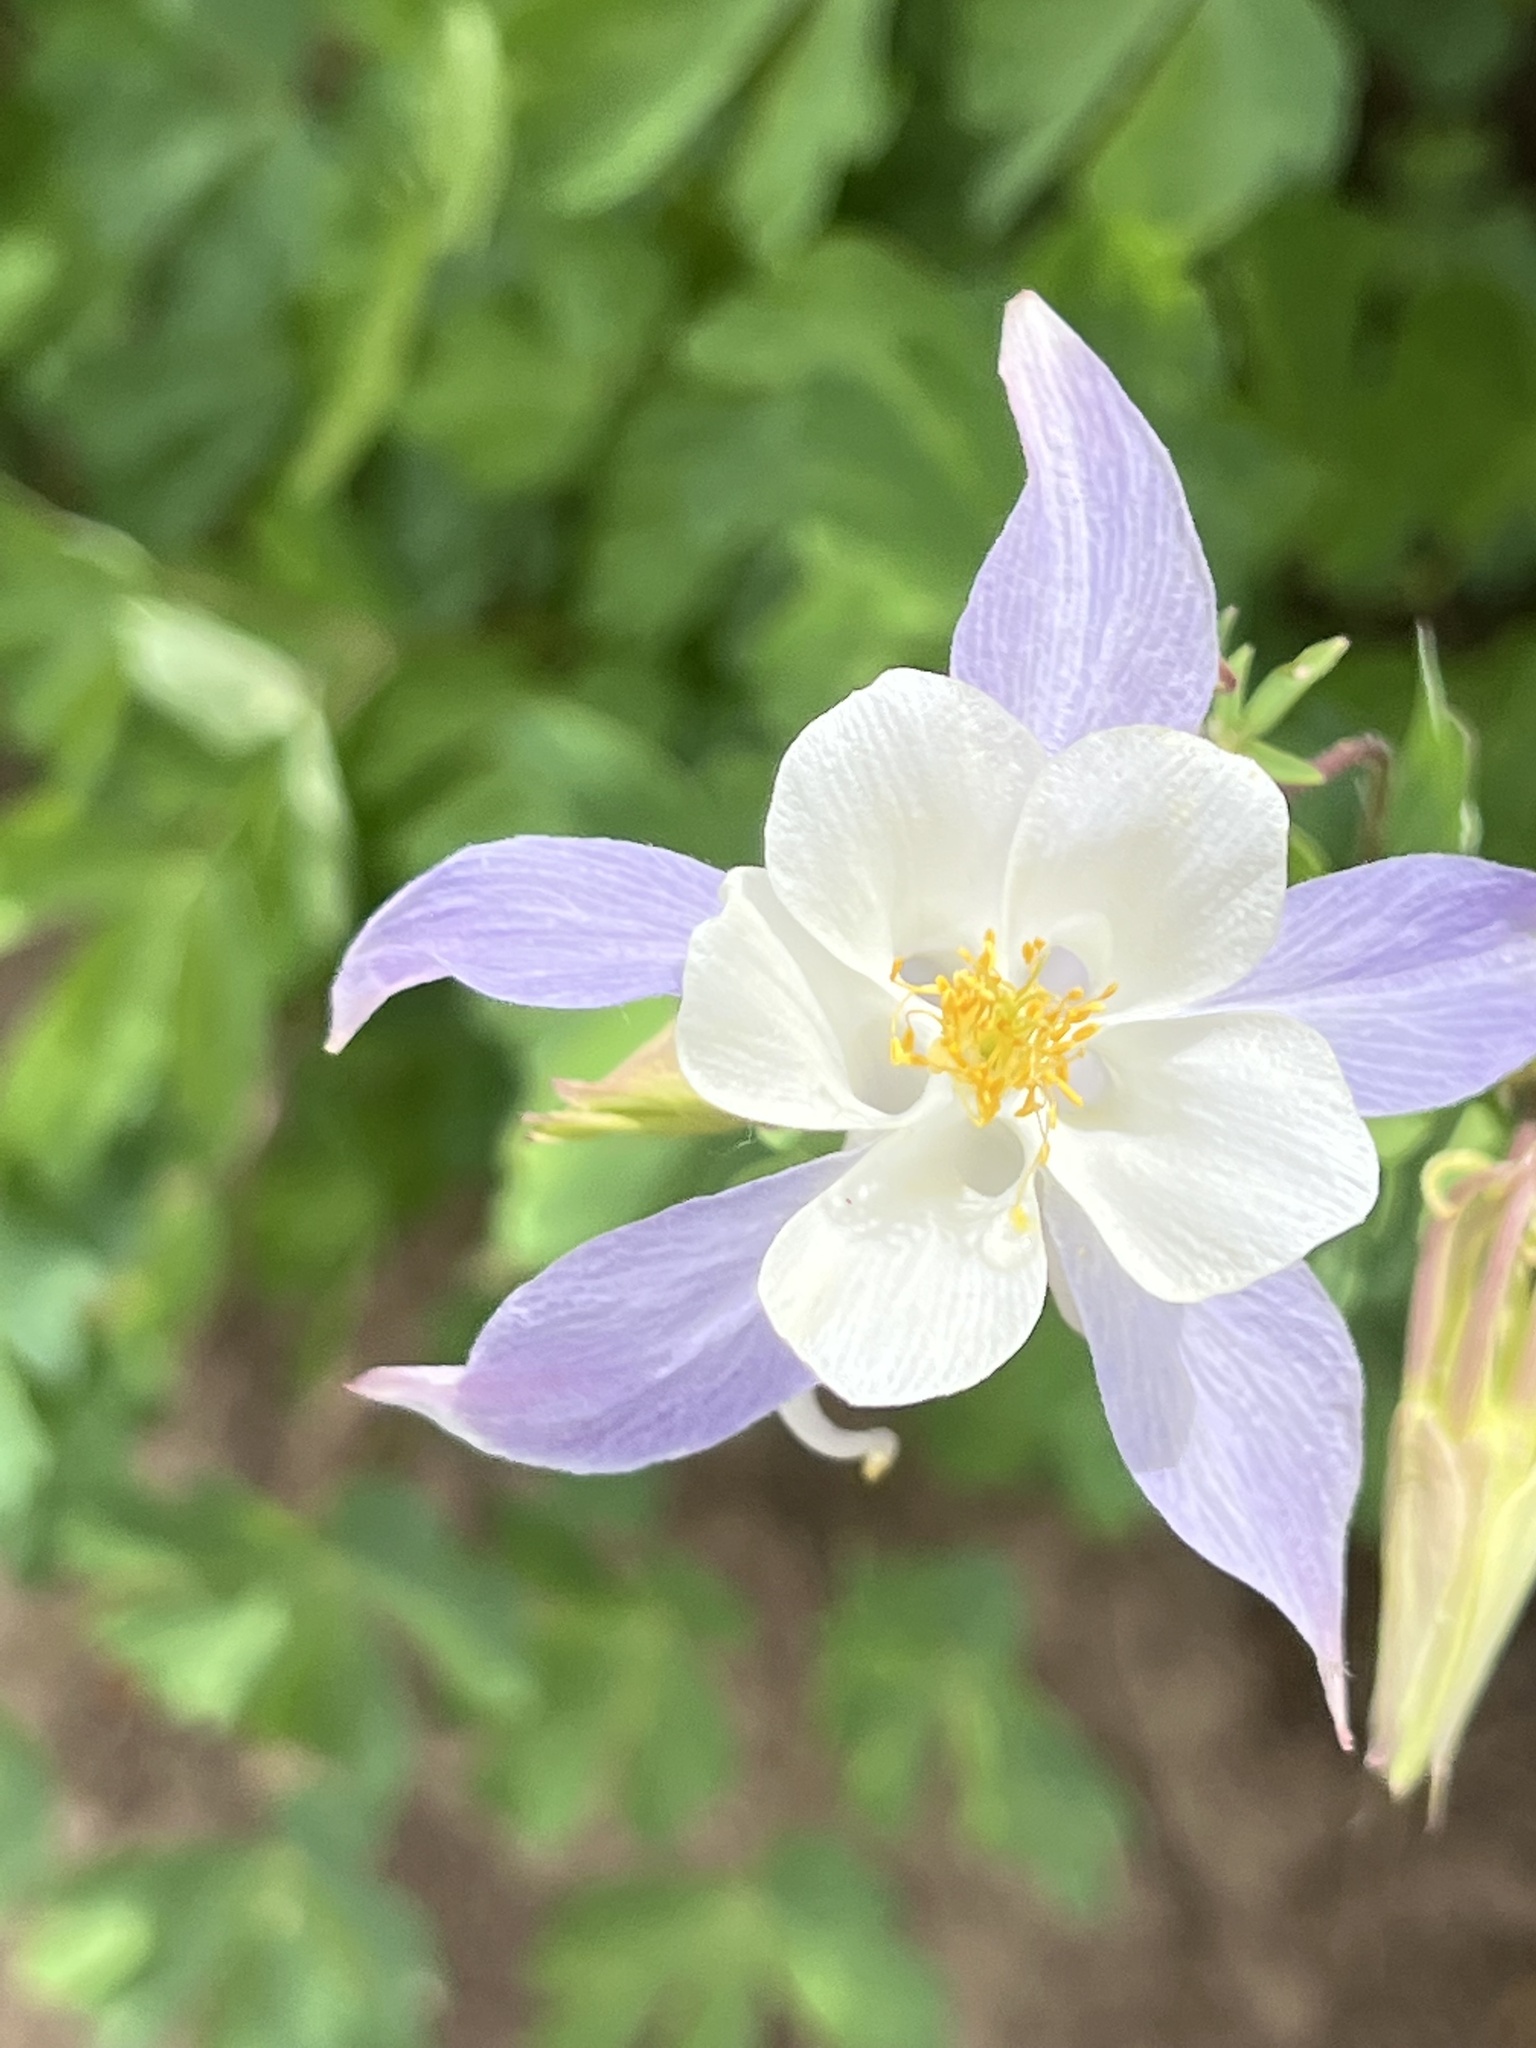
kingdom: Plantae
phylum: Tracheophyta
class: Magnoliopsida
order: Ranunculales
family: Ranunculaceae
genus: Aquilegia
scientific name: Aquilegia coerulea
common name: Rocky mountain columbine
